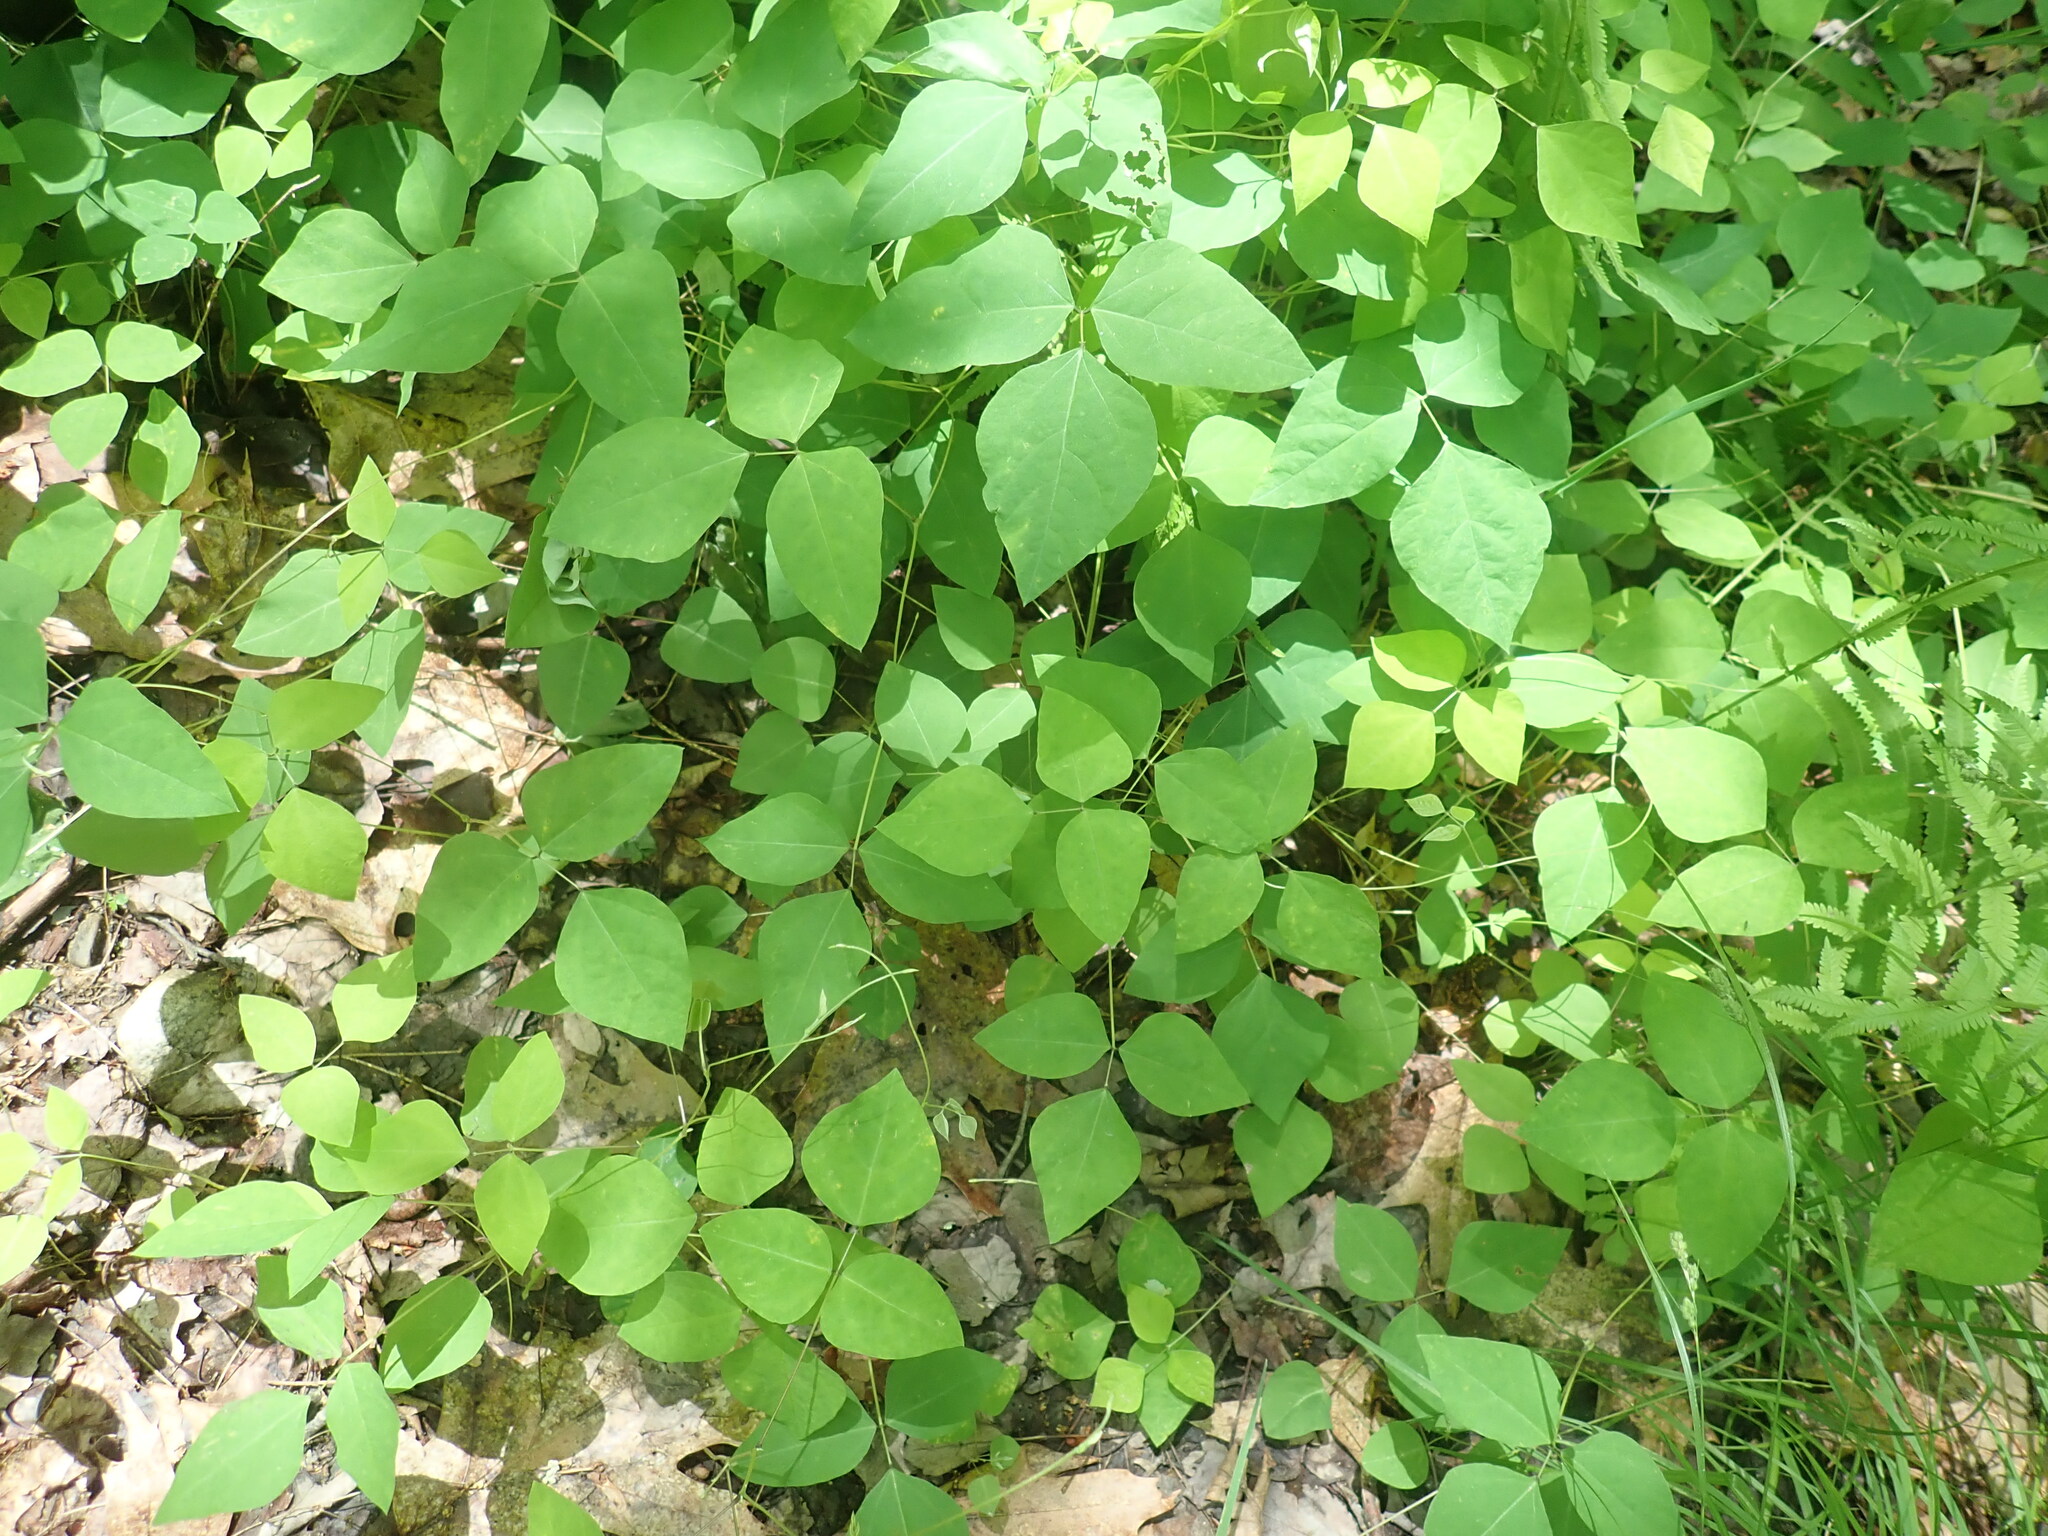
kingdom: Plantae
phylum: Tracheophyta
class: Magnoliopsida
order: Fabales
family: Fabaceae
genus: Amphicarpaea
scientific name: Amphicarpaea bracteata
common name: American hog peanut
